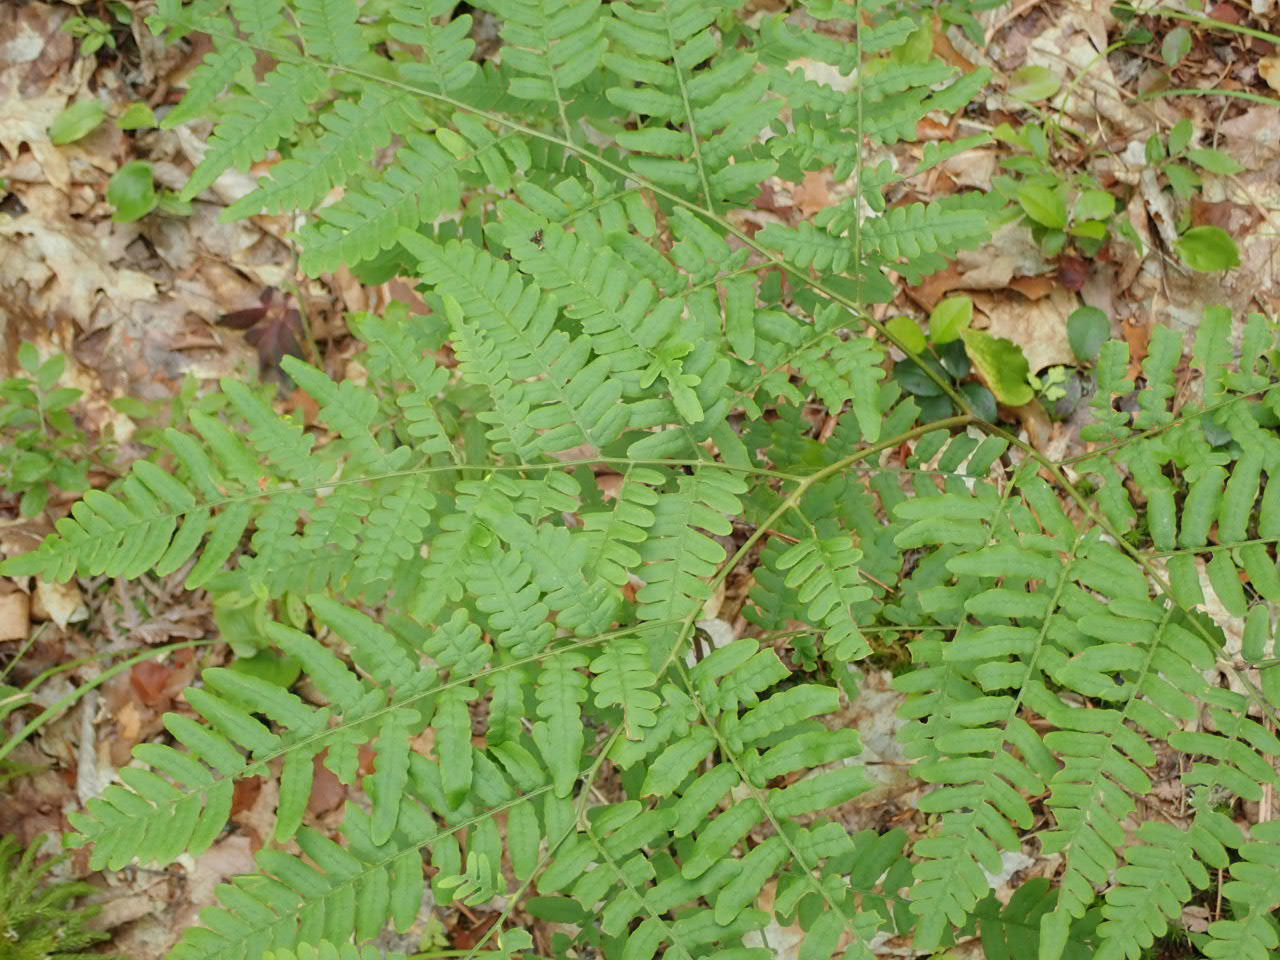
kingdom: Plantae
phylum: Tracheophyta
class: Polypodiopsida
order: Polypodiales
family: Dennstaedtiaceae
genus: Pteridium
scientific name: Pteridium aquilinum
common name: Bracken
